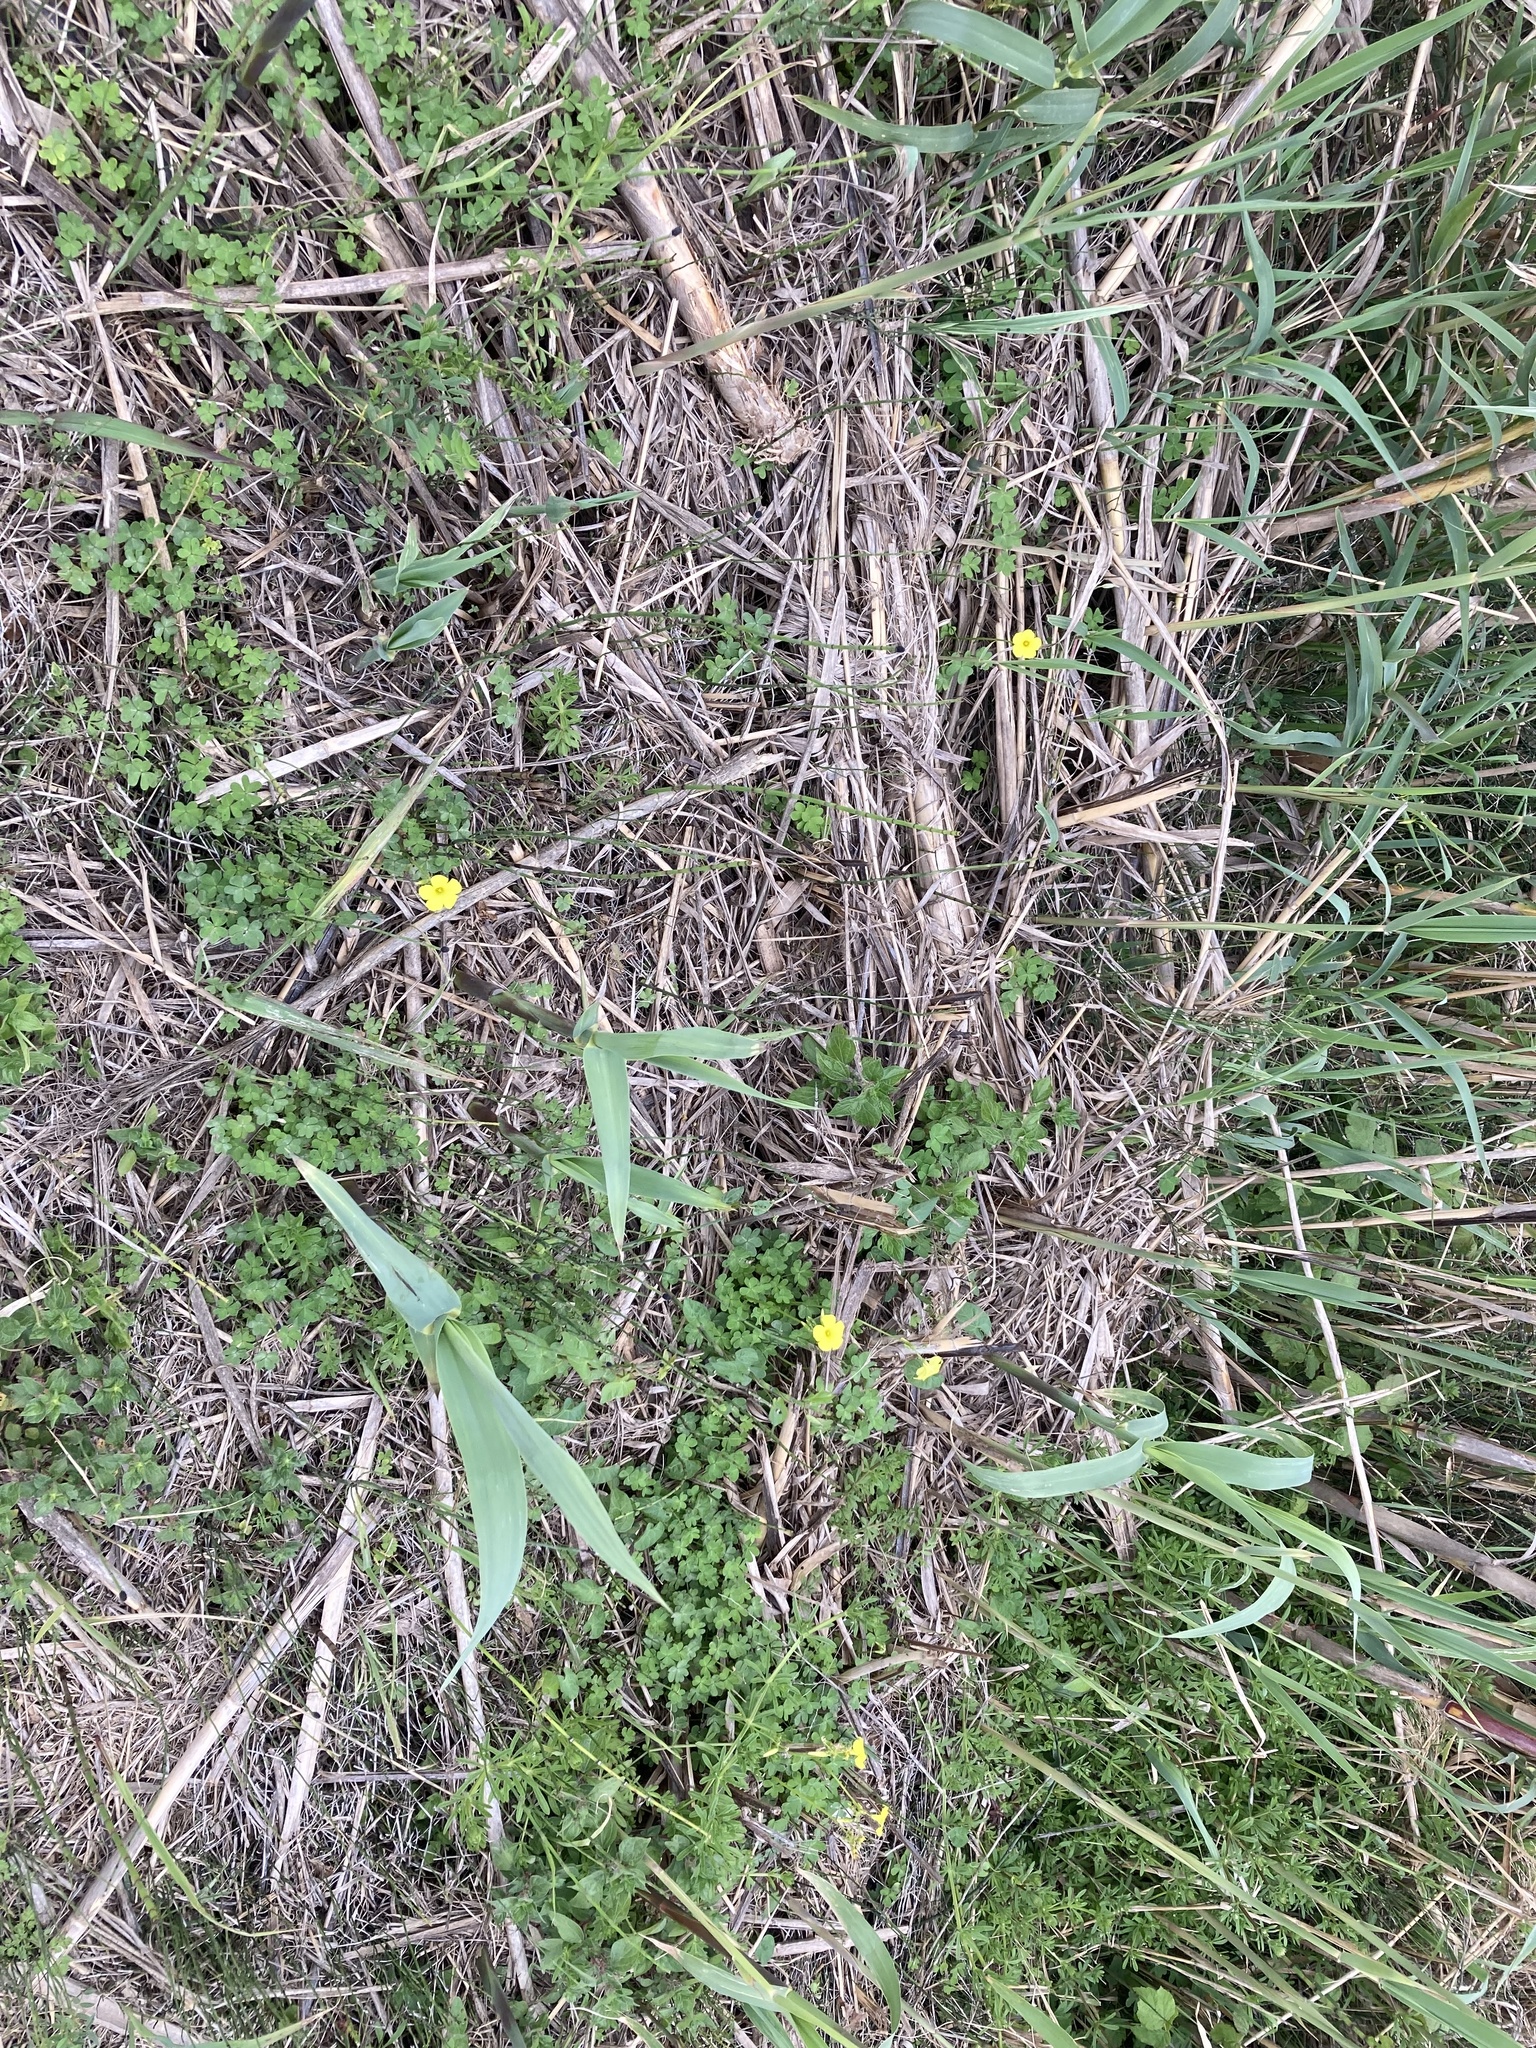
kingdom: Plantae
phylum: Tracheophyta
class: Magnoliopsida
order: Oxalidales
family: Oxalidaceae
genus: Oxalis
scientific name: Oxalis pes-caprae
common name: Bermuda-buttercup
